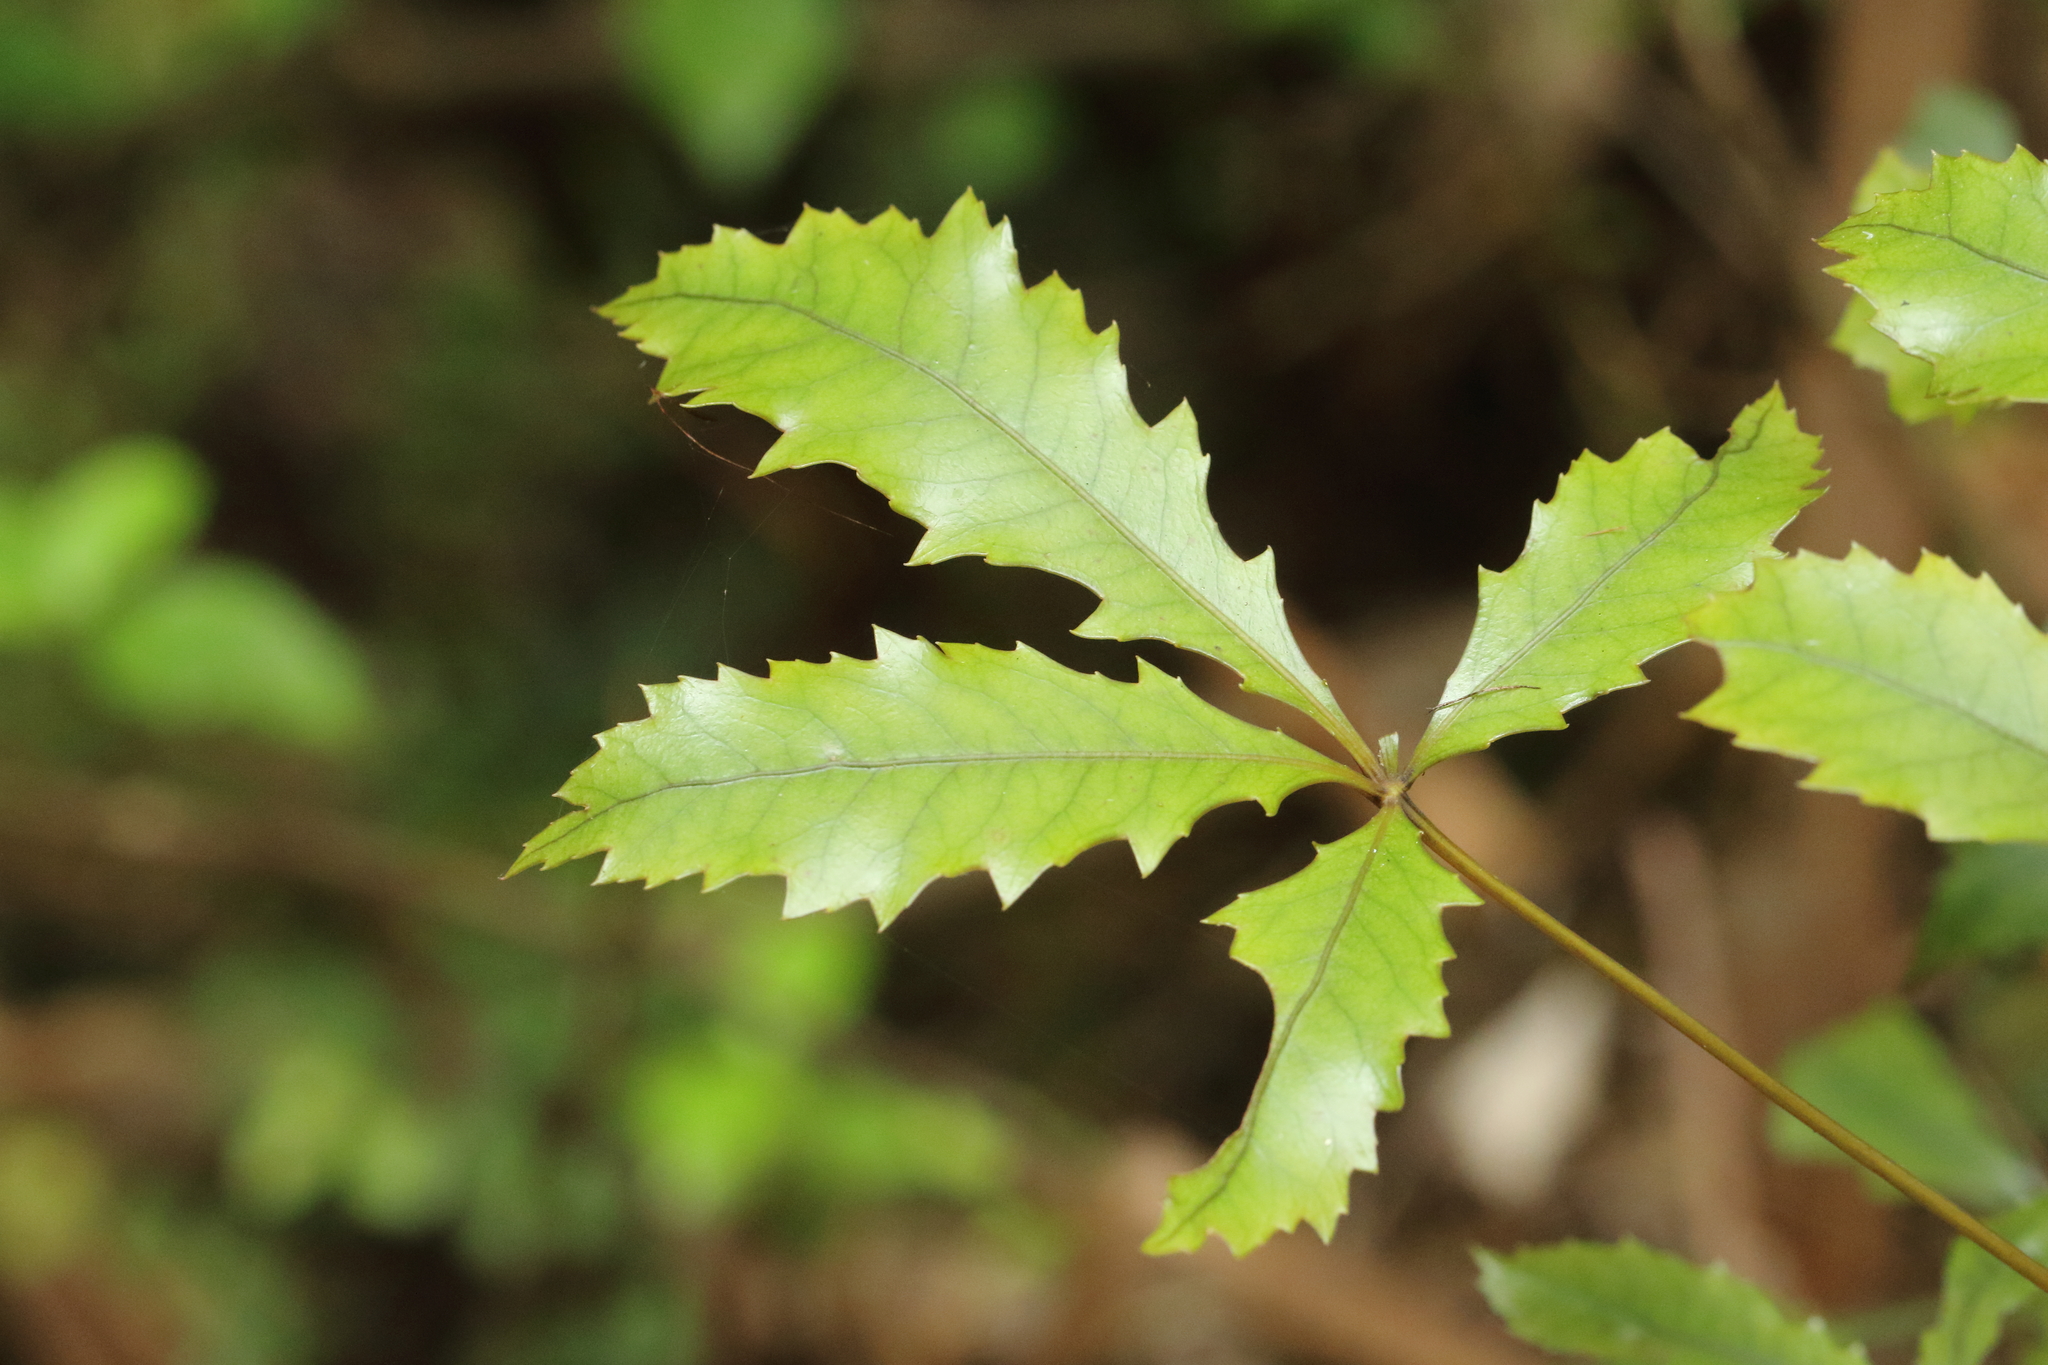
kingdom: Plantae
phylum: Tracheophyta
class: Magnoliopsida
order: Apiales
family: Araliaceae
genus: Pseudopanax
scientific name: Pseudopanax discolor
